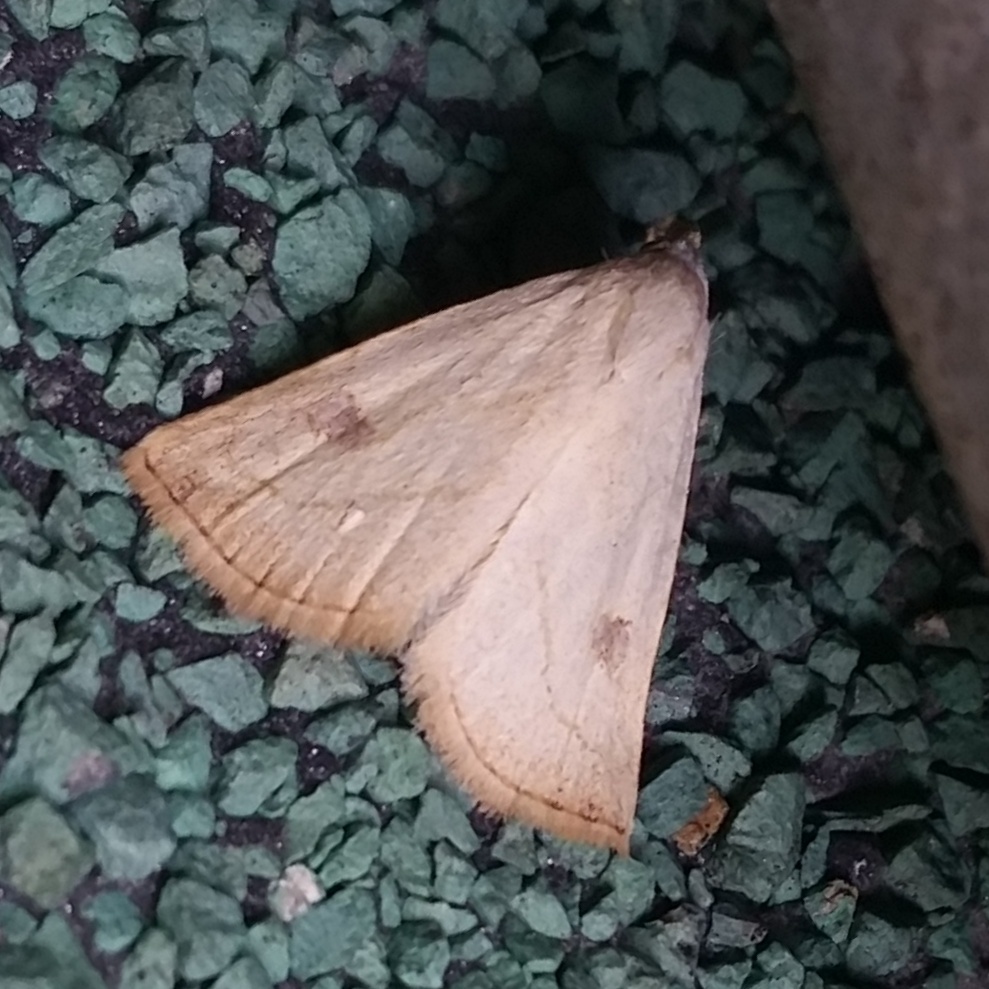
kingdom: Animalia
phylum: Arthropoda
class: Insecta
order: Lepidoptera
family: Erebidae
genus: Rivula
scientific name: Rivula propinqualis
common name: Spotted grass moth
